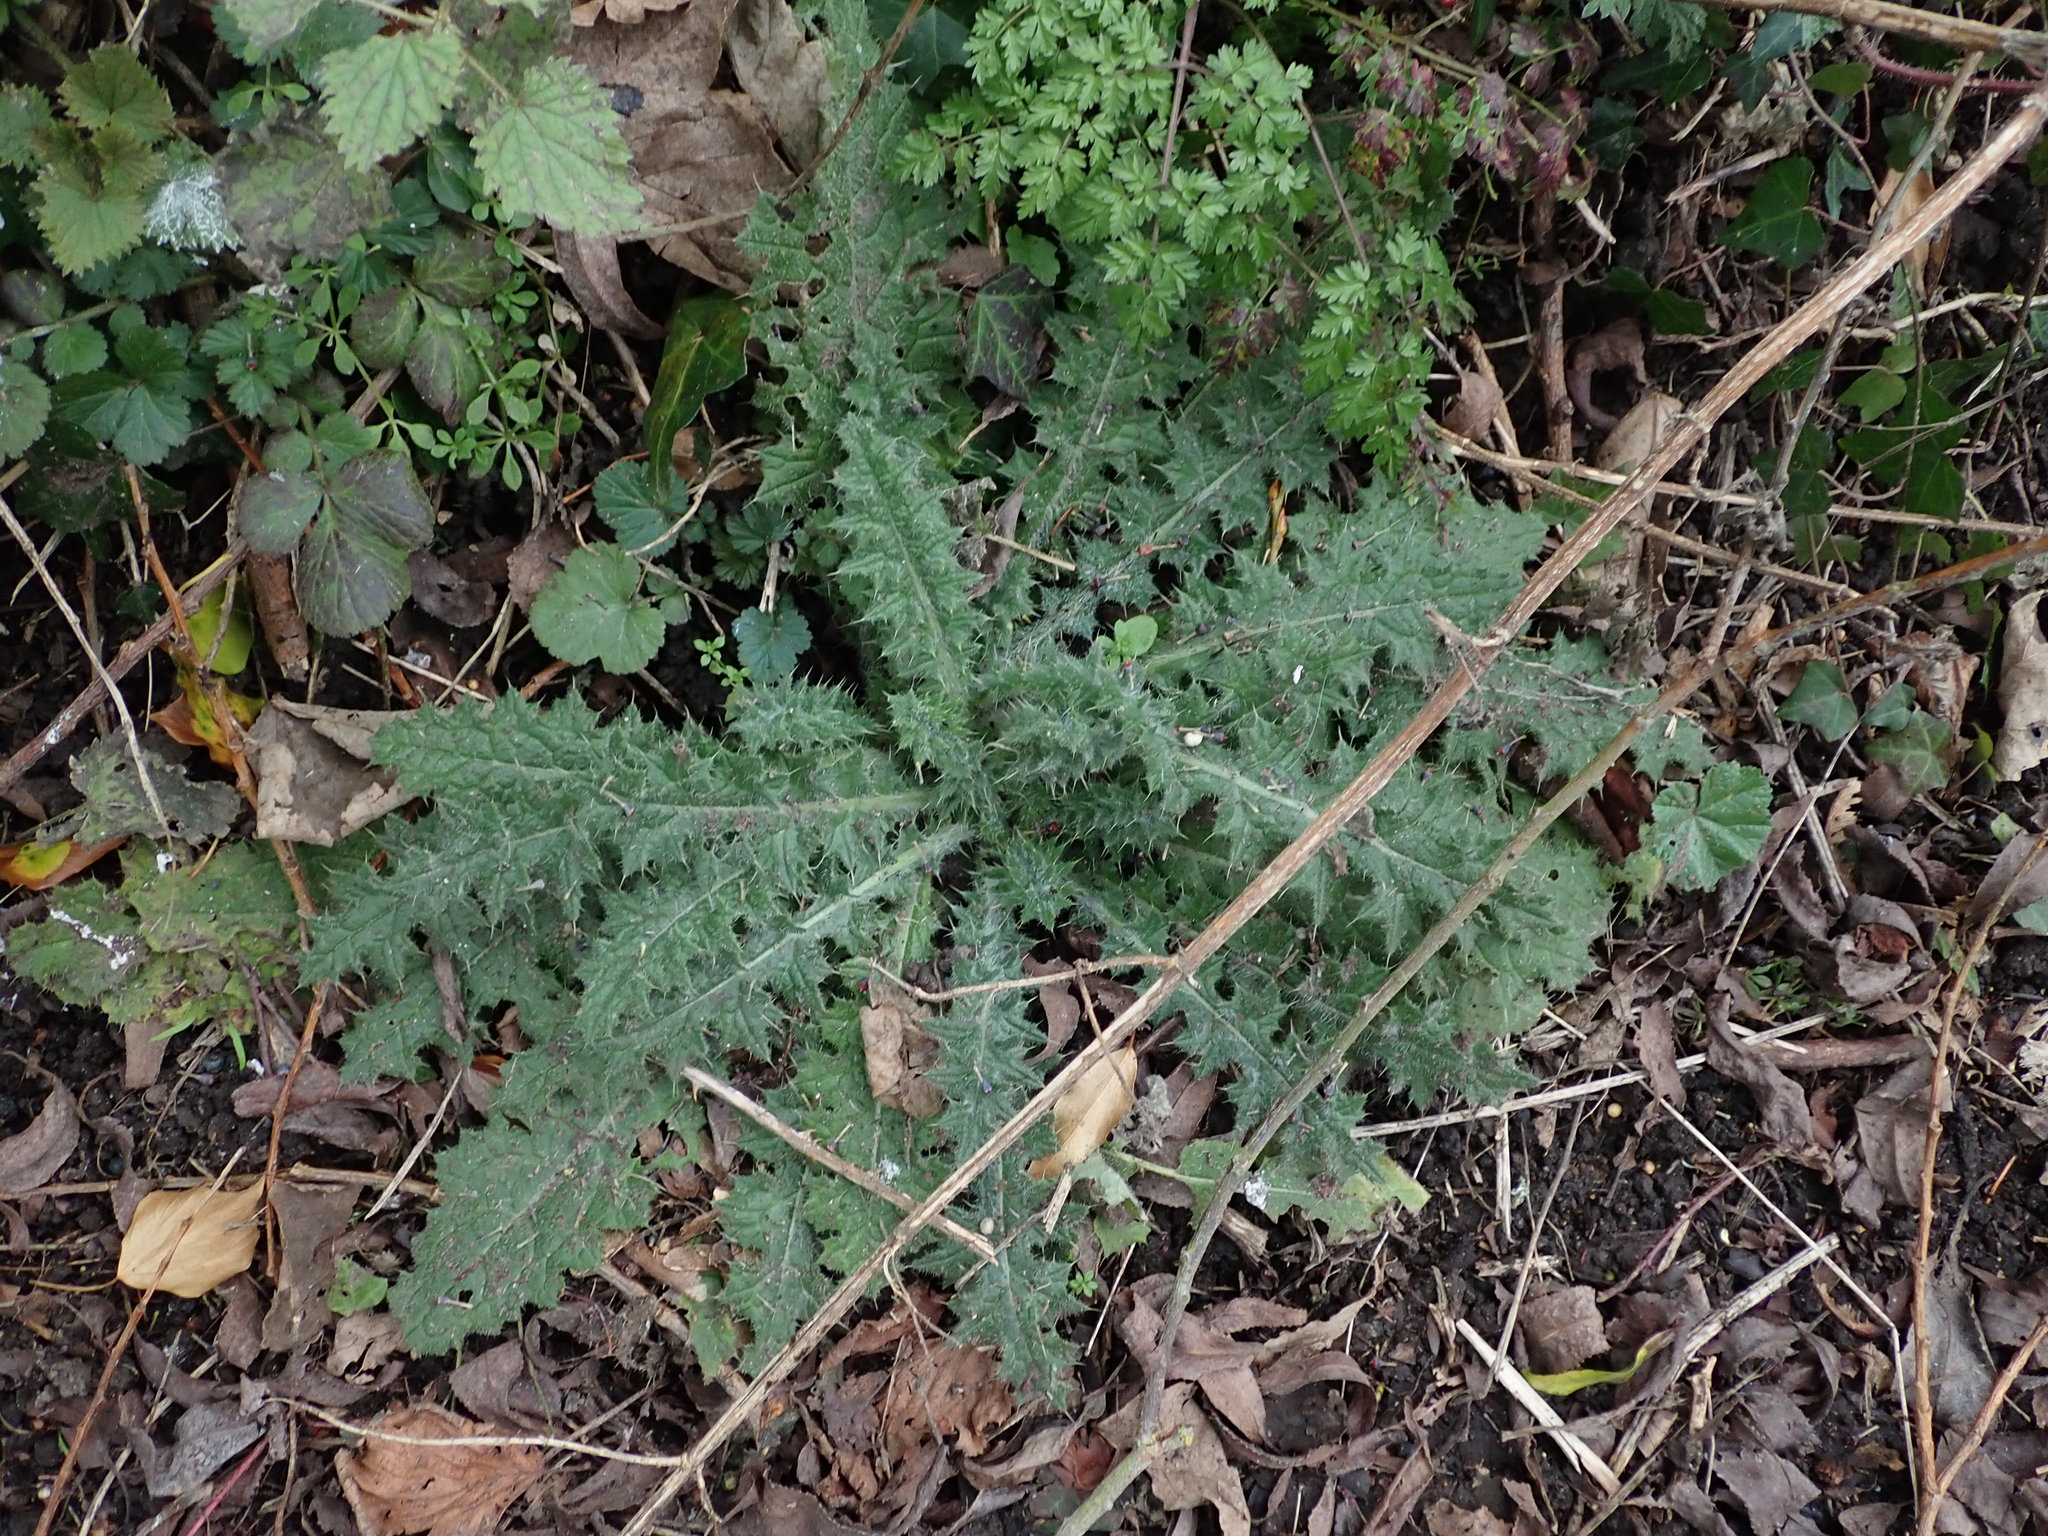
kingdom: Plantae
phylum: Tracheophyta
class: Magnoliopsida
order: Asterales
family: Asteraceae
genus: Cirsium
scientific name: Cirsium vulgare
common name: Bull thistle
